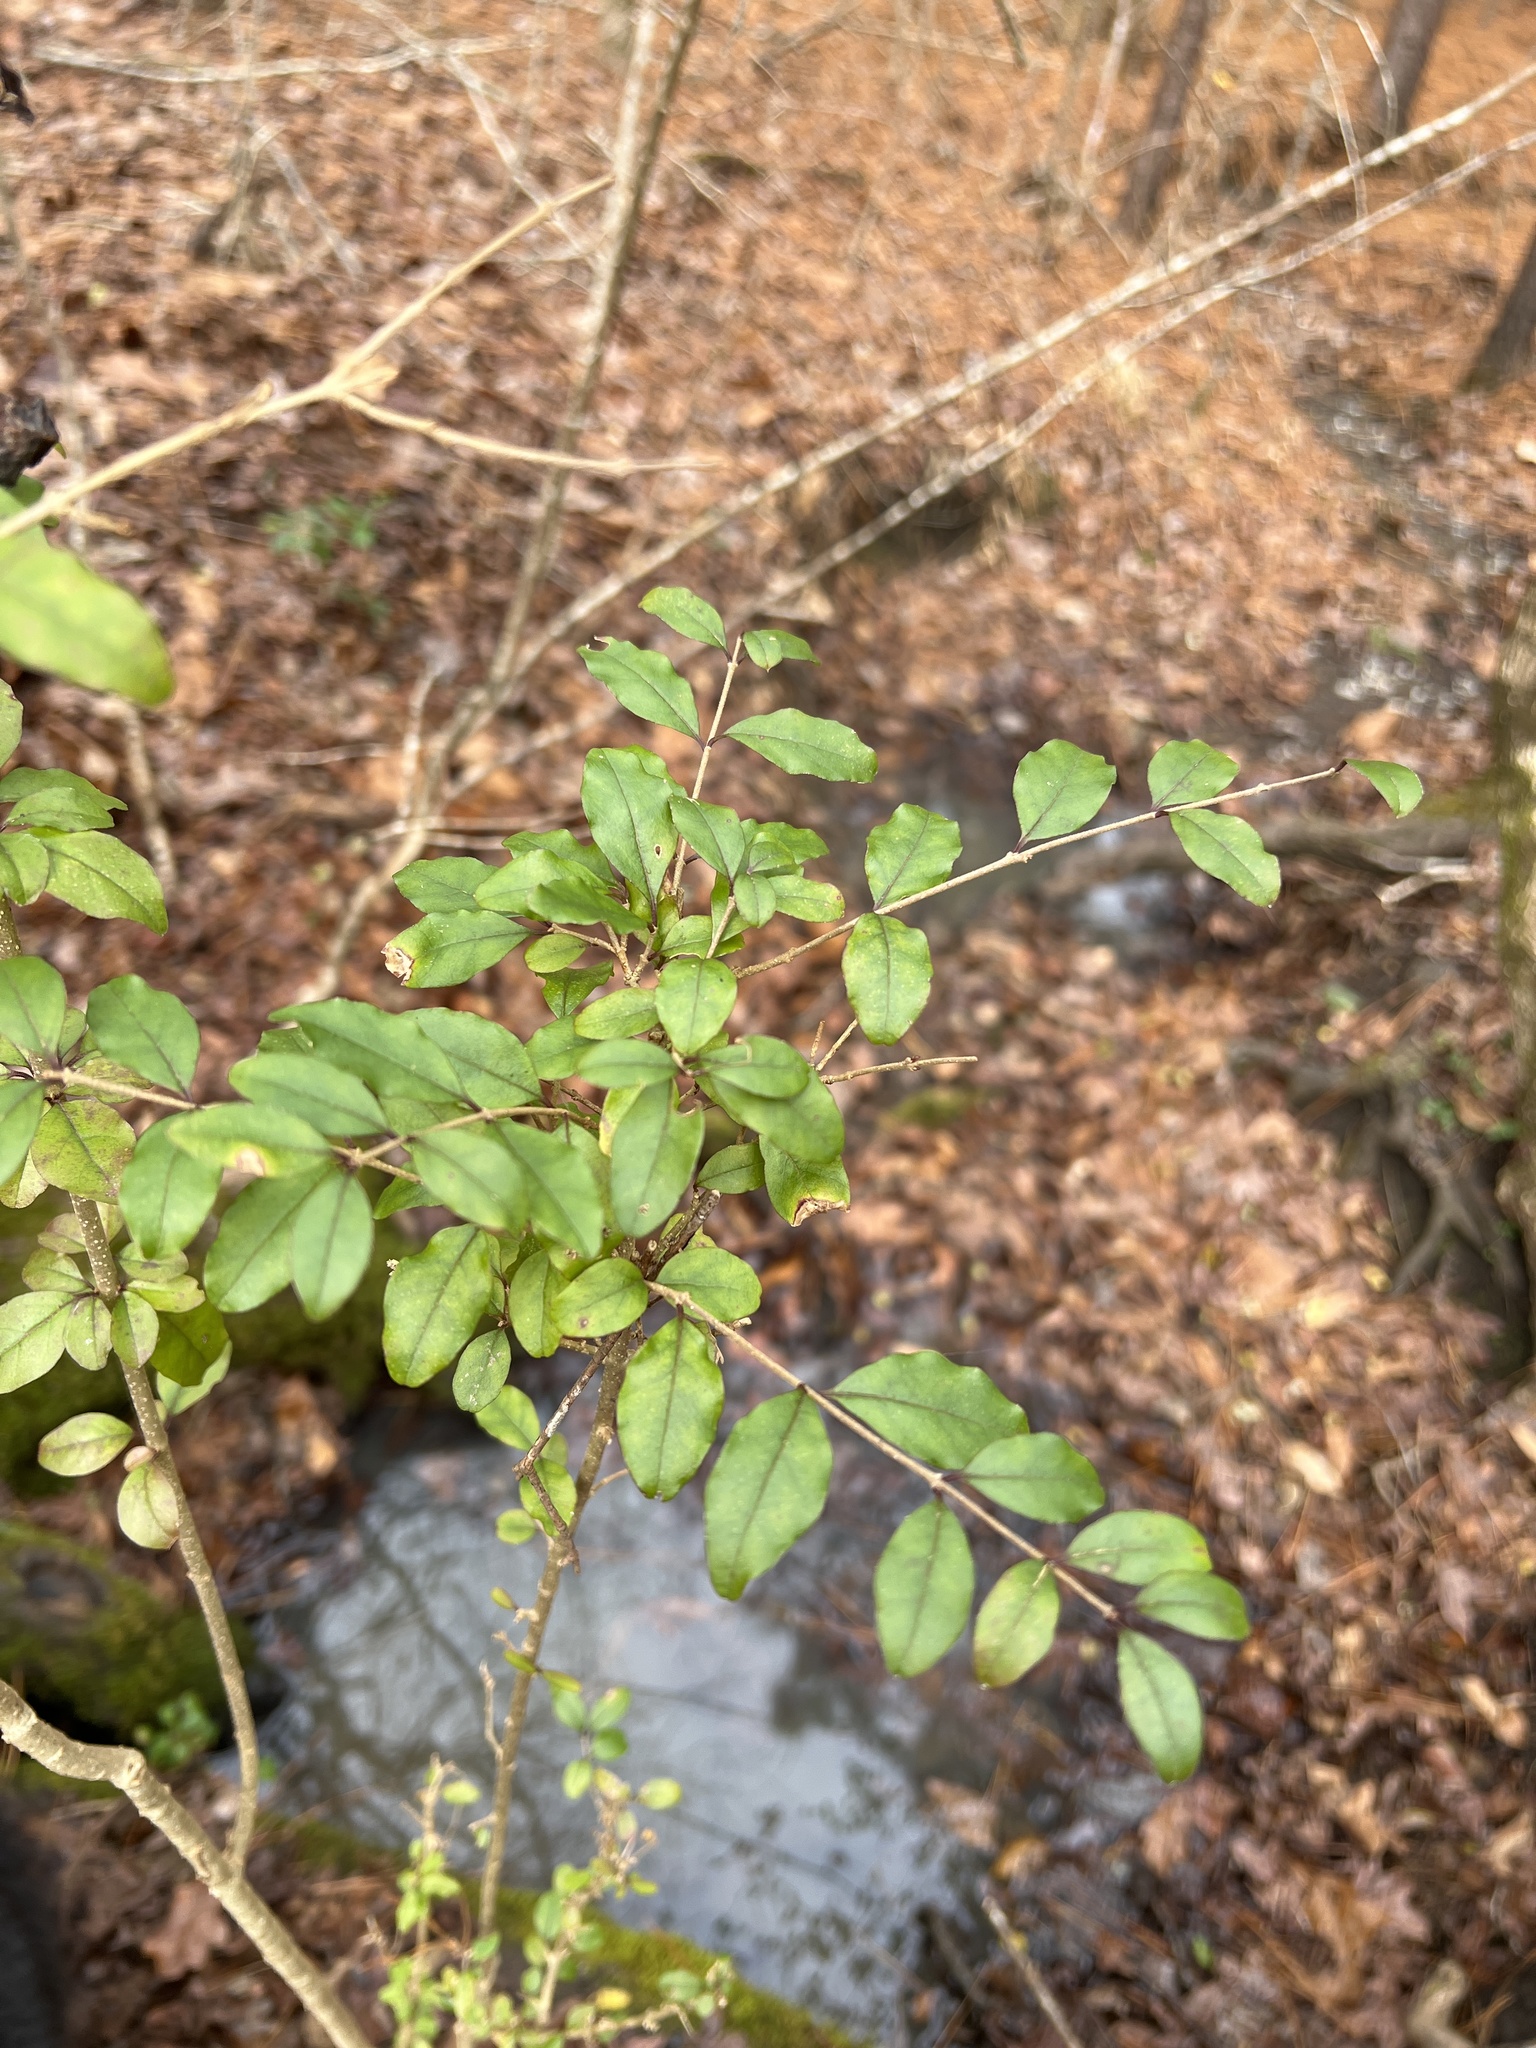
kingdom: Plantae
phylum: Tracheophyta
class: Magnoliopsida
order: Lamiales
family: Oleaceae
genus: Ligustrum
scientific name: Ligustrum sinense
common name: Chinese privet
